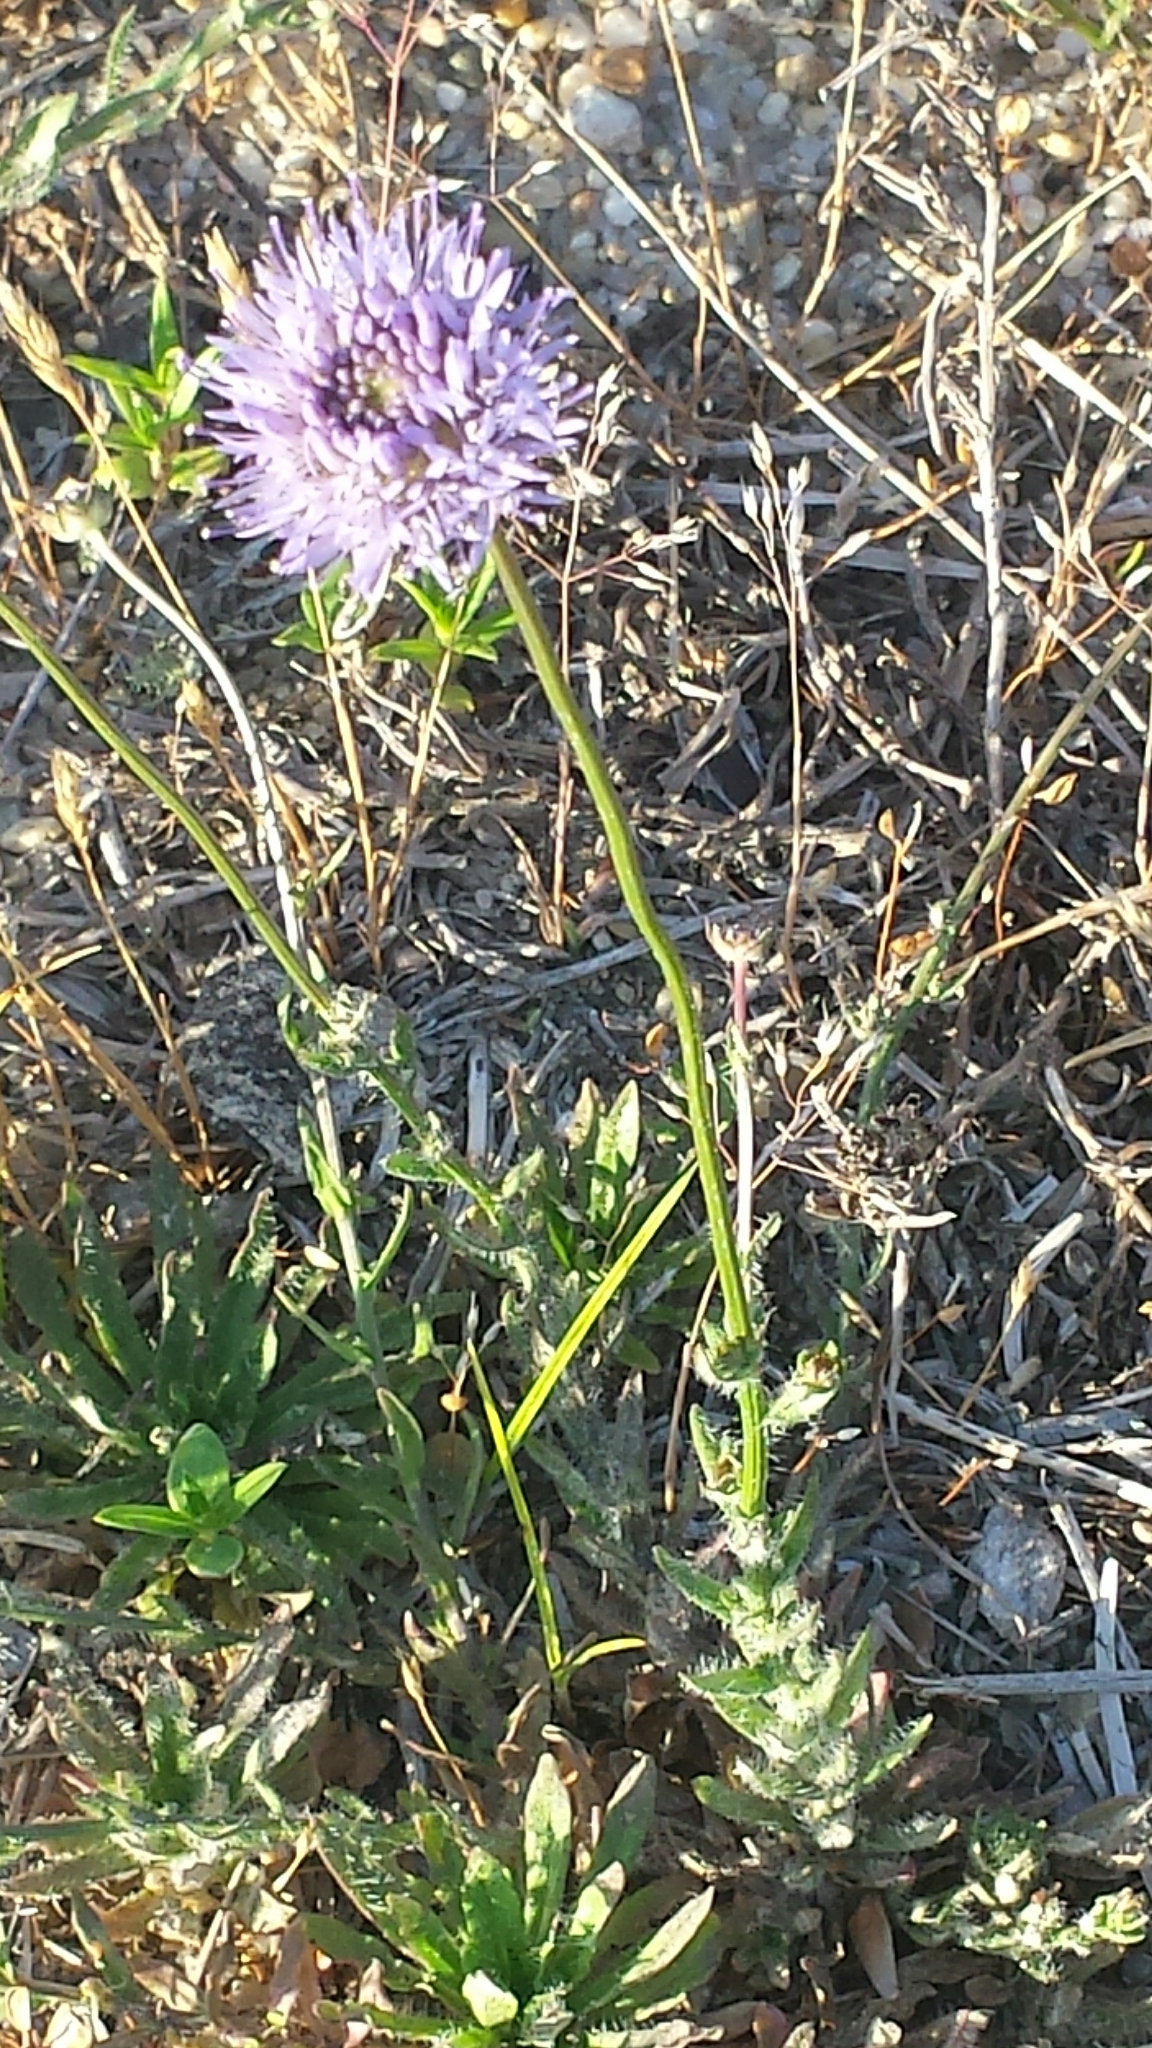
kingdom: Plantae
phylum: Tracheophyta
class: Magnoliopsida
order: Asterales
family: Campanulaceae
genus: Jasione
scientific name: Jasione montana
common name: Sheep's-bit
